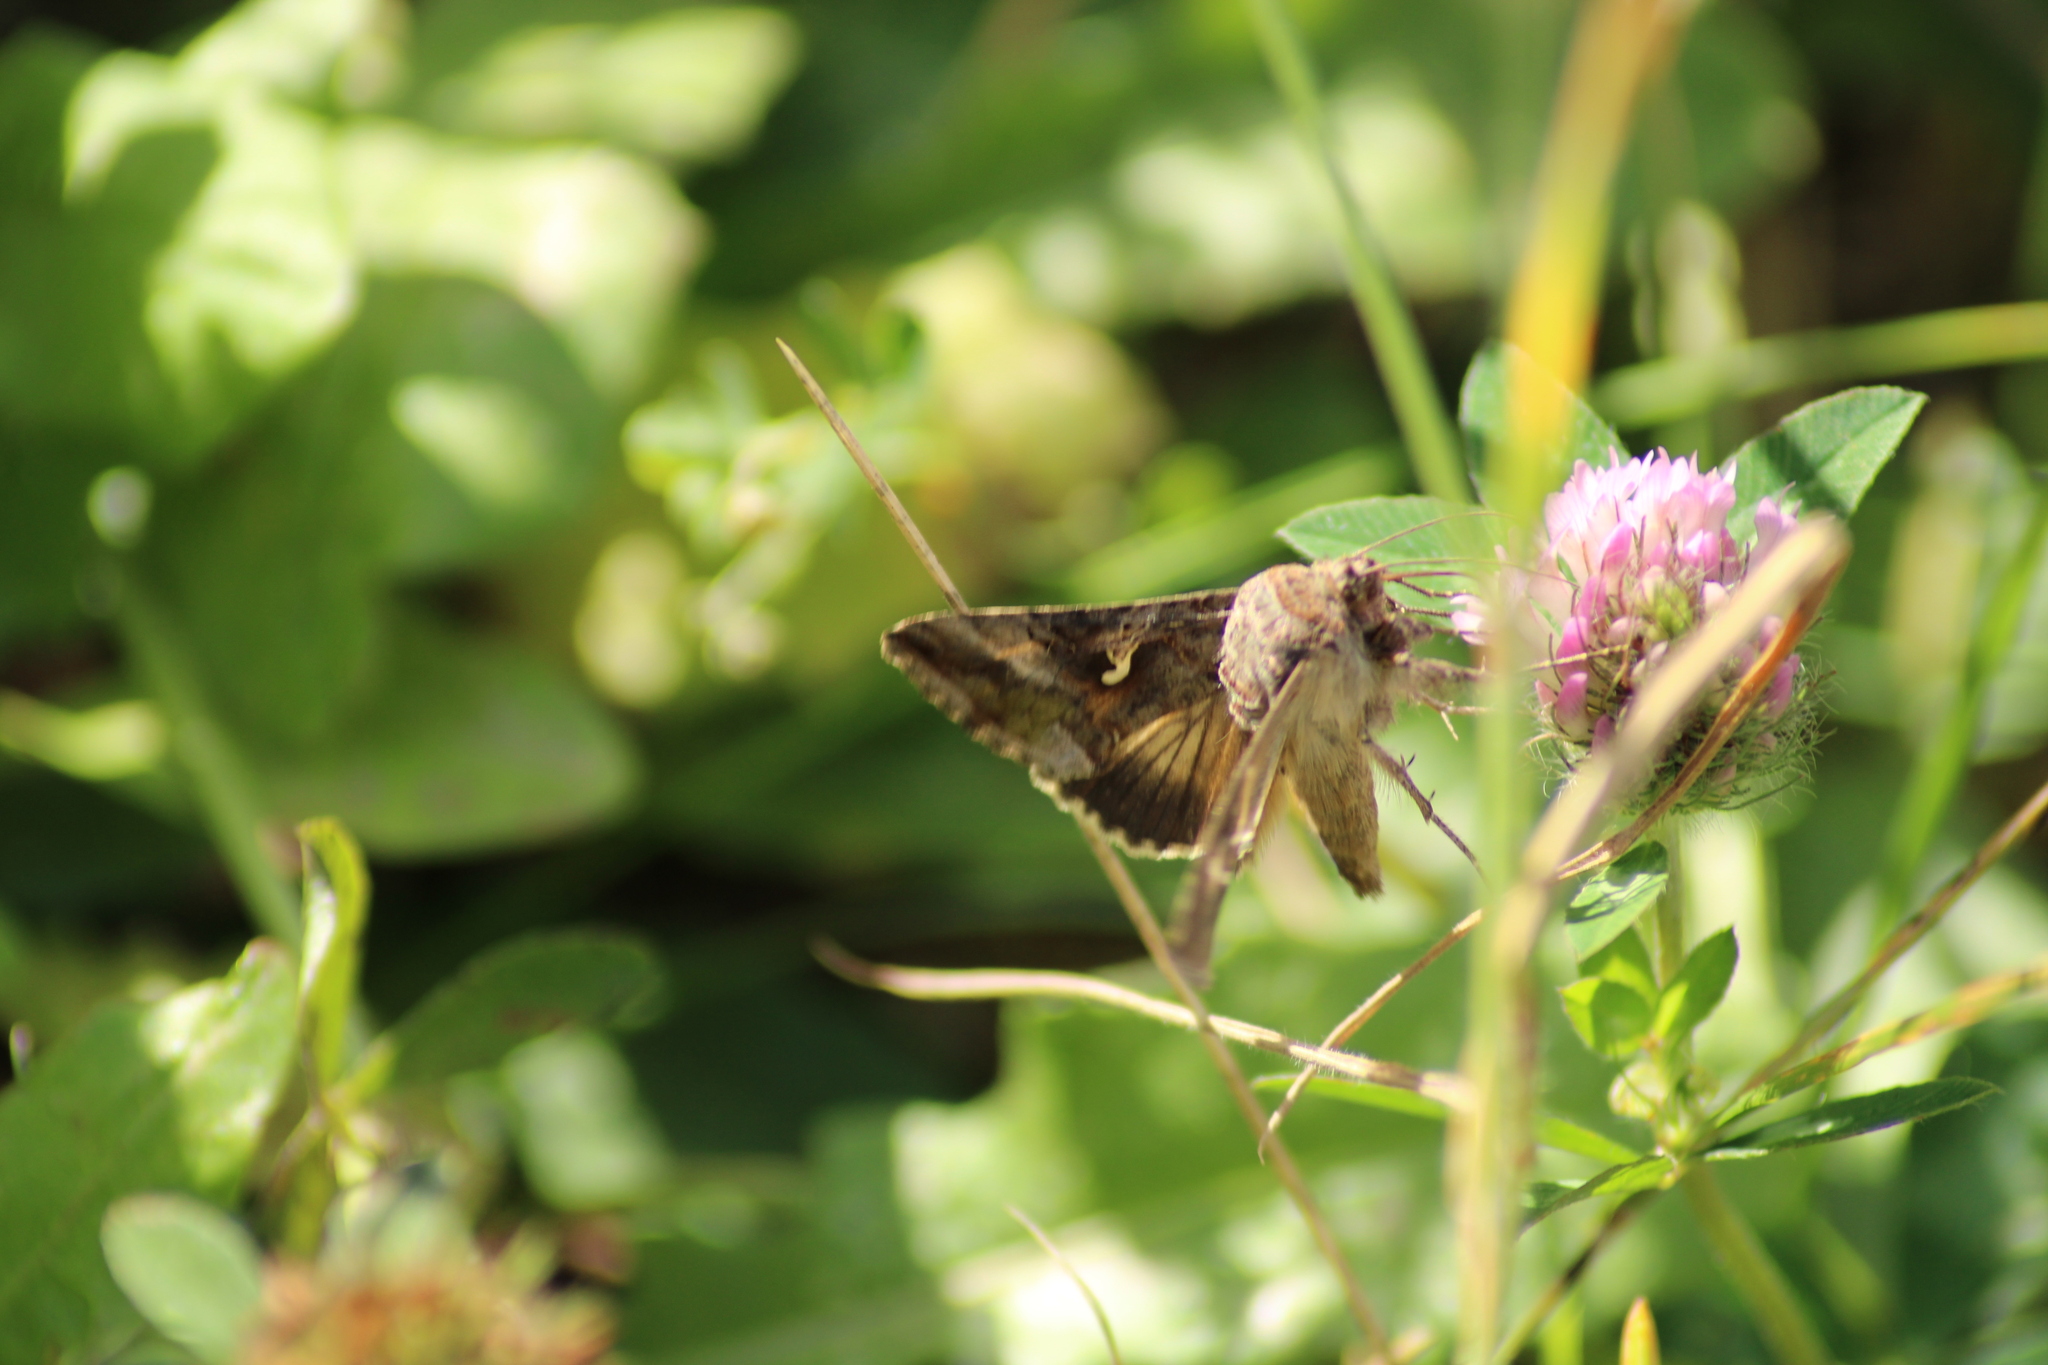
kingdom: Animalia
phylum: Arthropoda
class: Insecta
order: Lepidoptera
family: Noctuidae
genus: Autographa
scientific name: Autographa gamma
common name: Silver y
